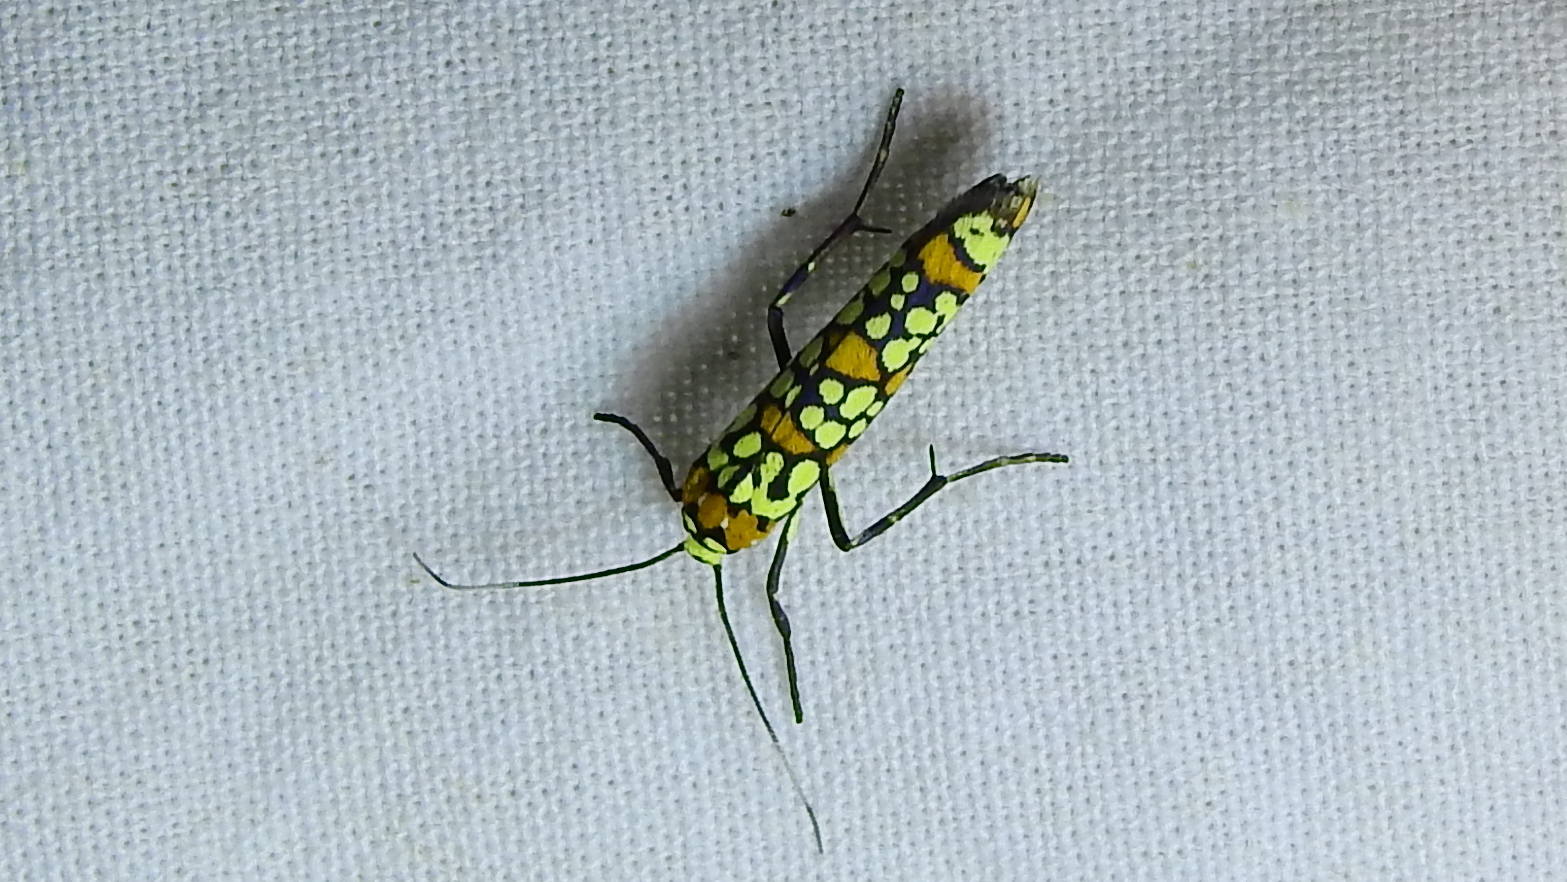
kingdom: Animalia
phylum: Arthropoda
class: Insecta
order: Lepidoptera
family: Attevidae
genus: Atteva
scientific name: Atteva punctella
